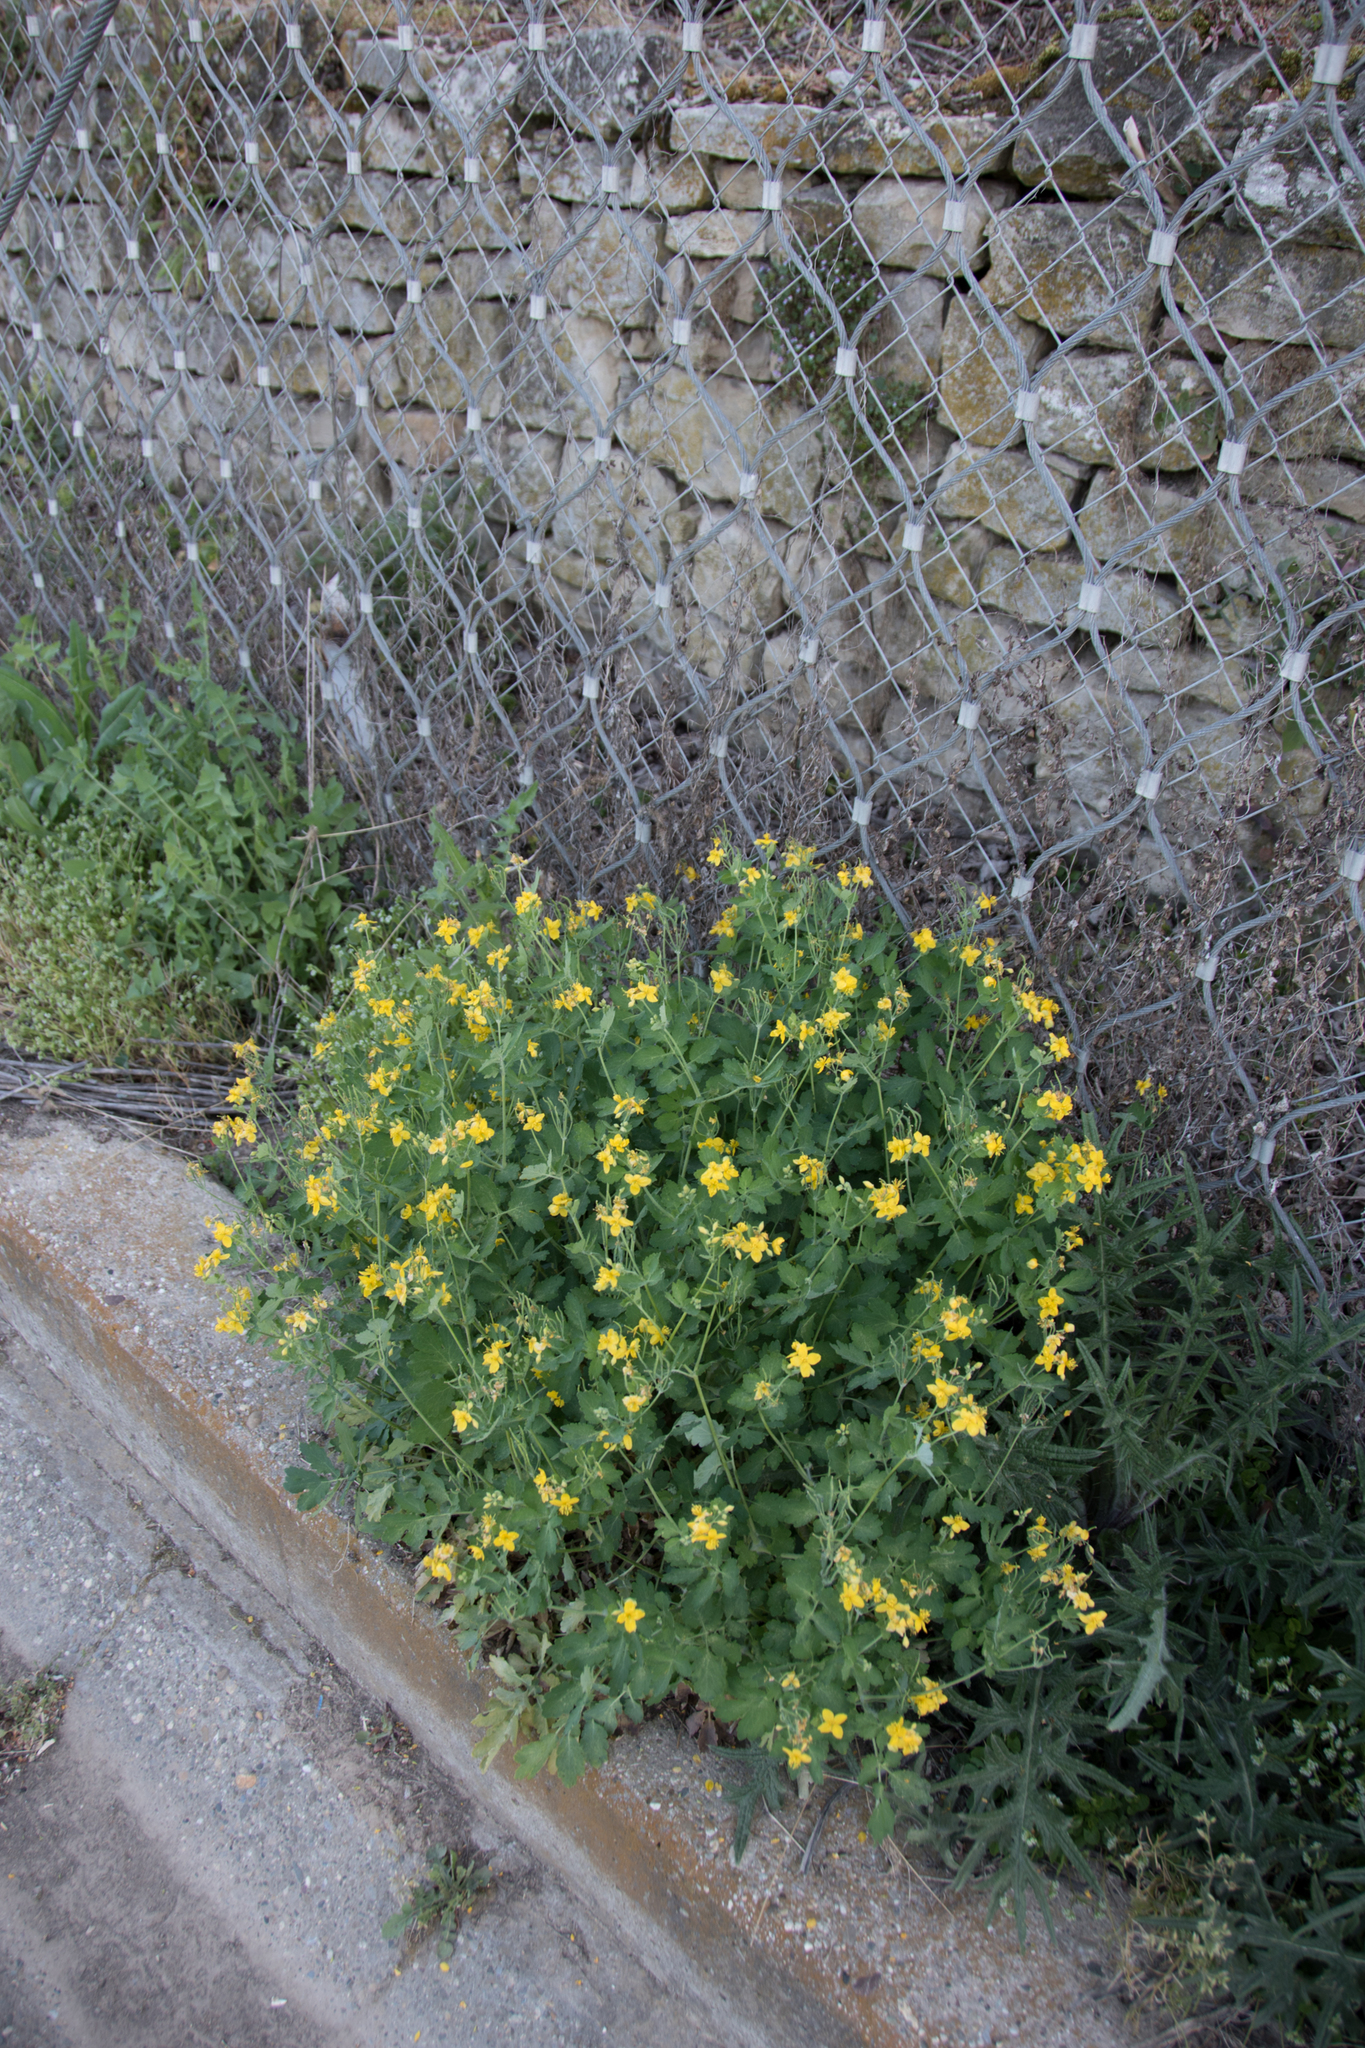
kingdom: Plantae
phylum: Tracheophyta
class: Magnoliopsida
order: Ranunculales
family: Papaveraceae
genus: Chelidonium
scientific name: Chelidonium majus
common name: Greater celandine
